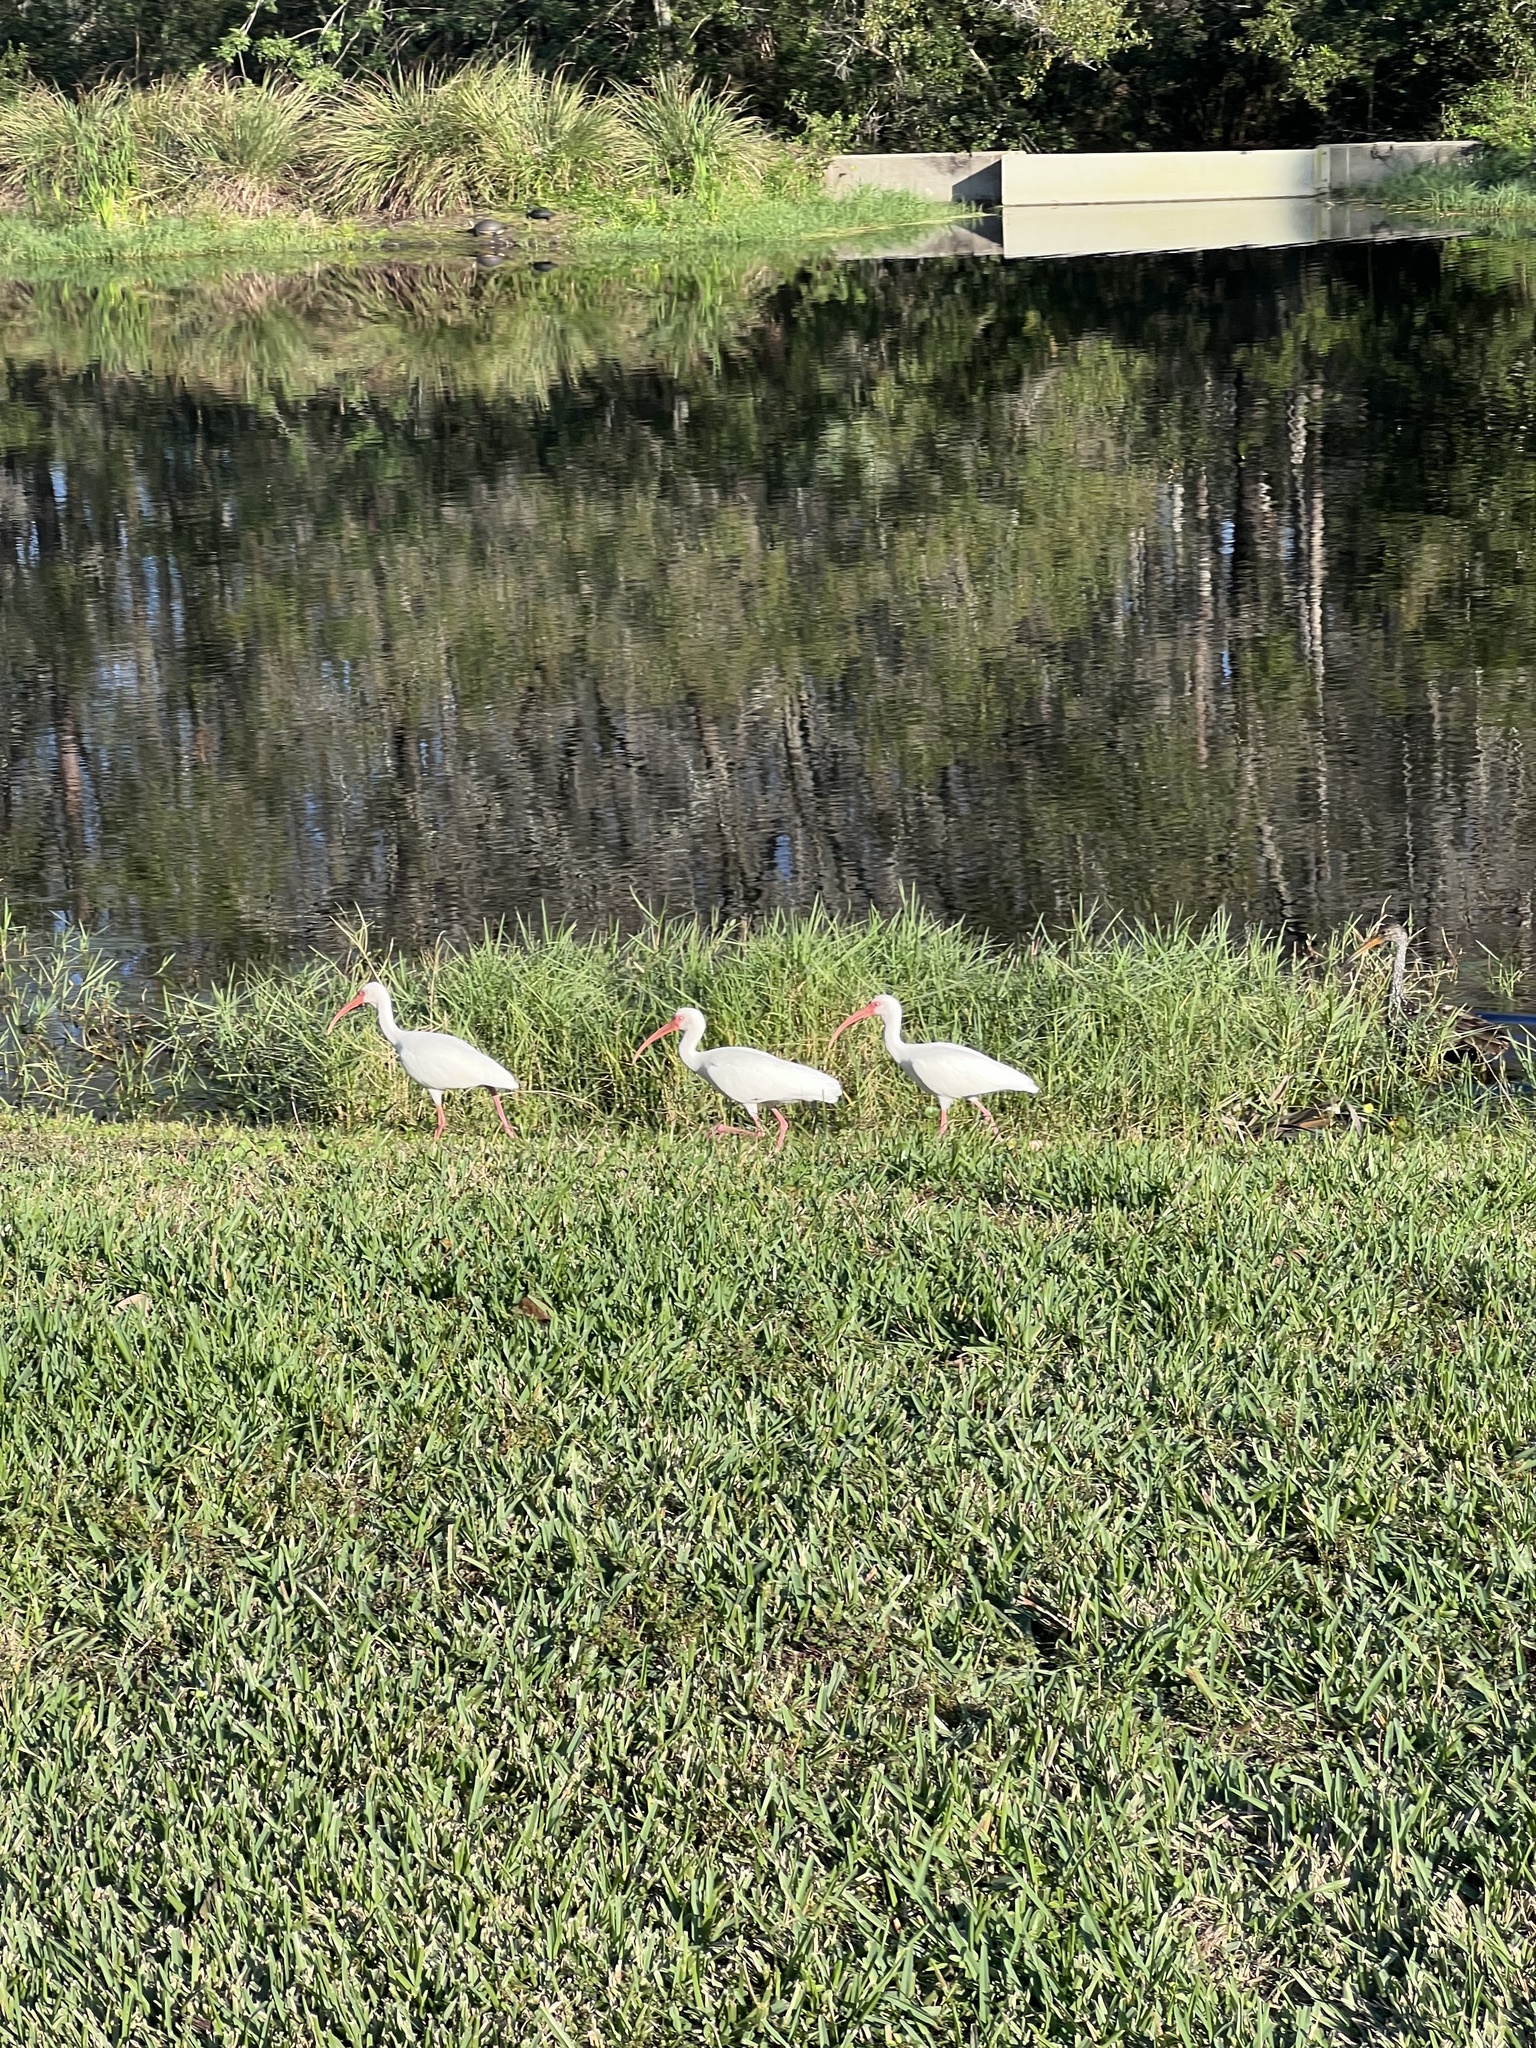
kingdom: Animalia
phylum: Chordata
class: Aves
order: Pelecaniformes
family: Threskiornithidae
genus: Eudocimus
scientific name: Eudocimus albus
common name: White ibis
